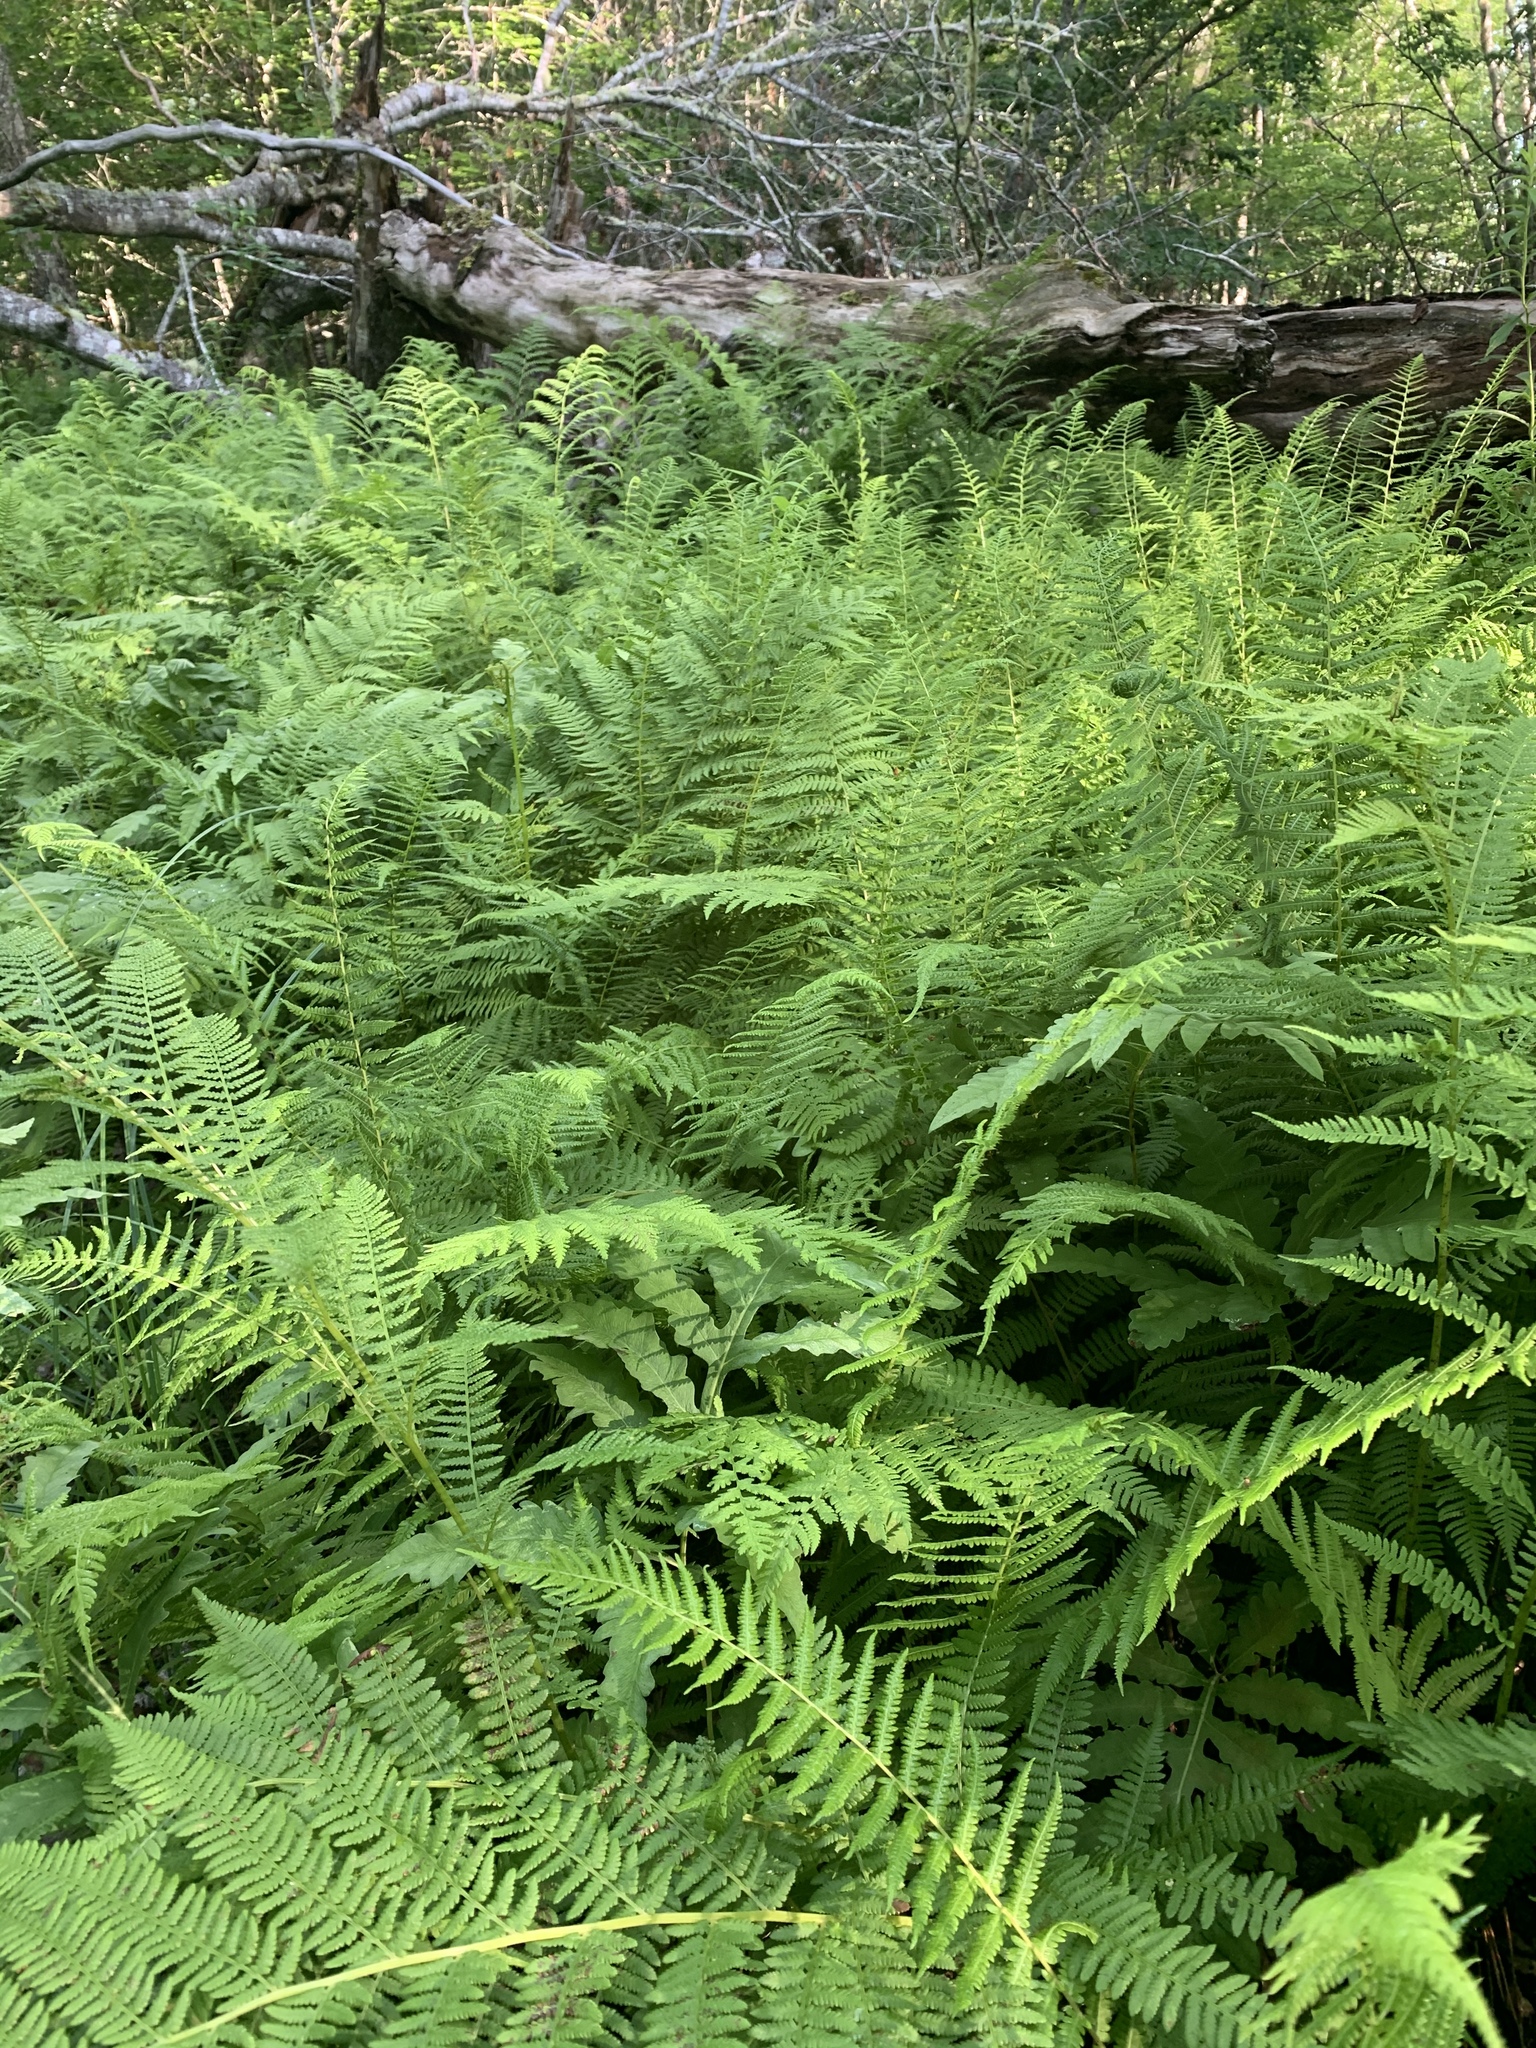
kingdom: Plantae
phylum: Tracheophyta
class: Polypodiopsida
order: Polypodiales
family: Dennstaedtiaceae
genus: Sitobolium
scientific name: Sitobolium punctilobum
